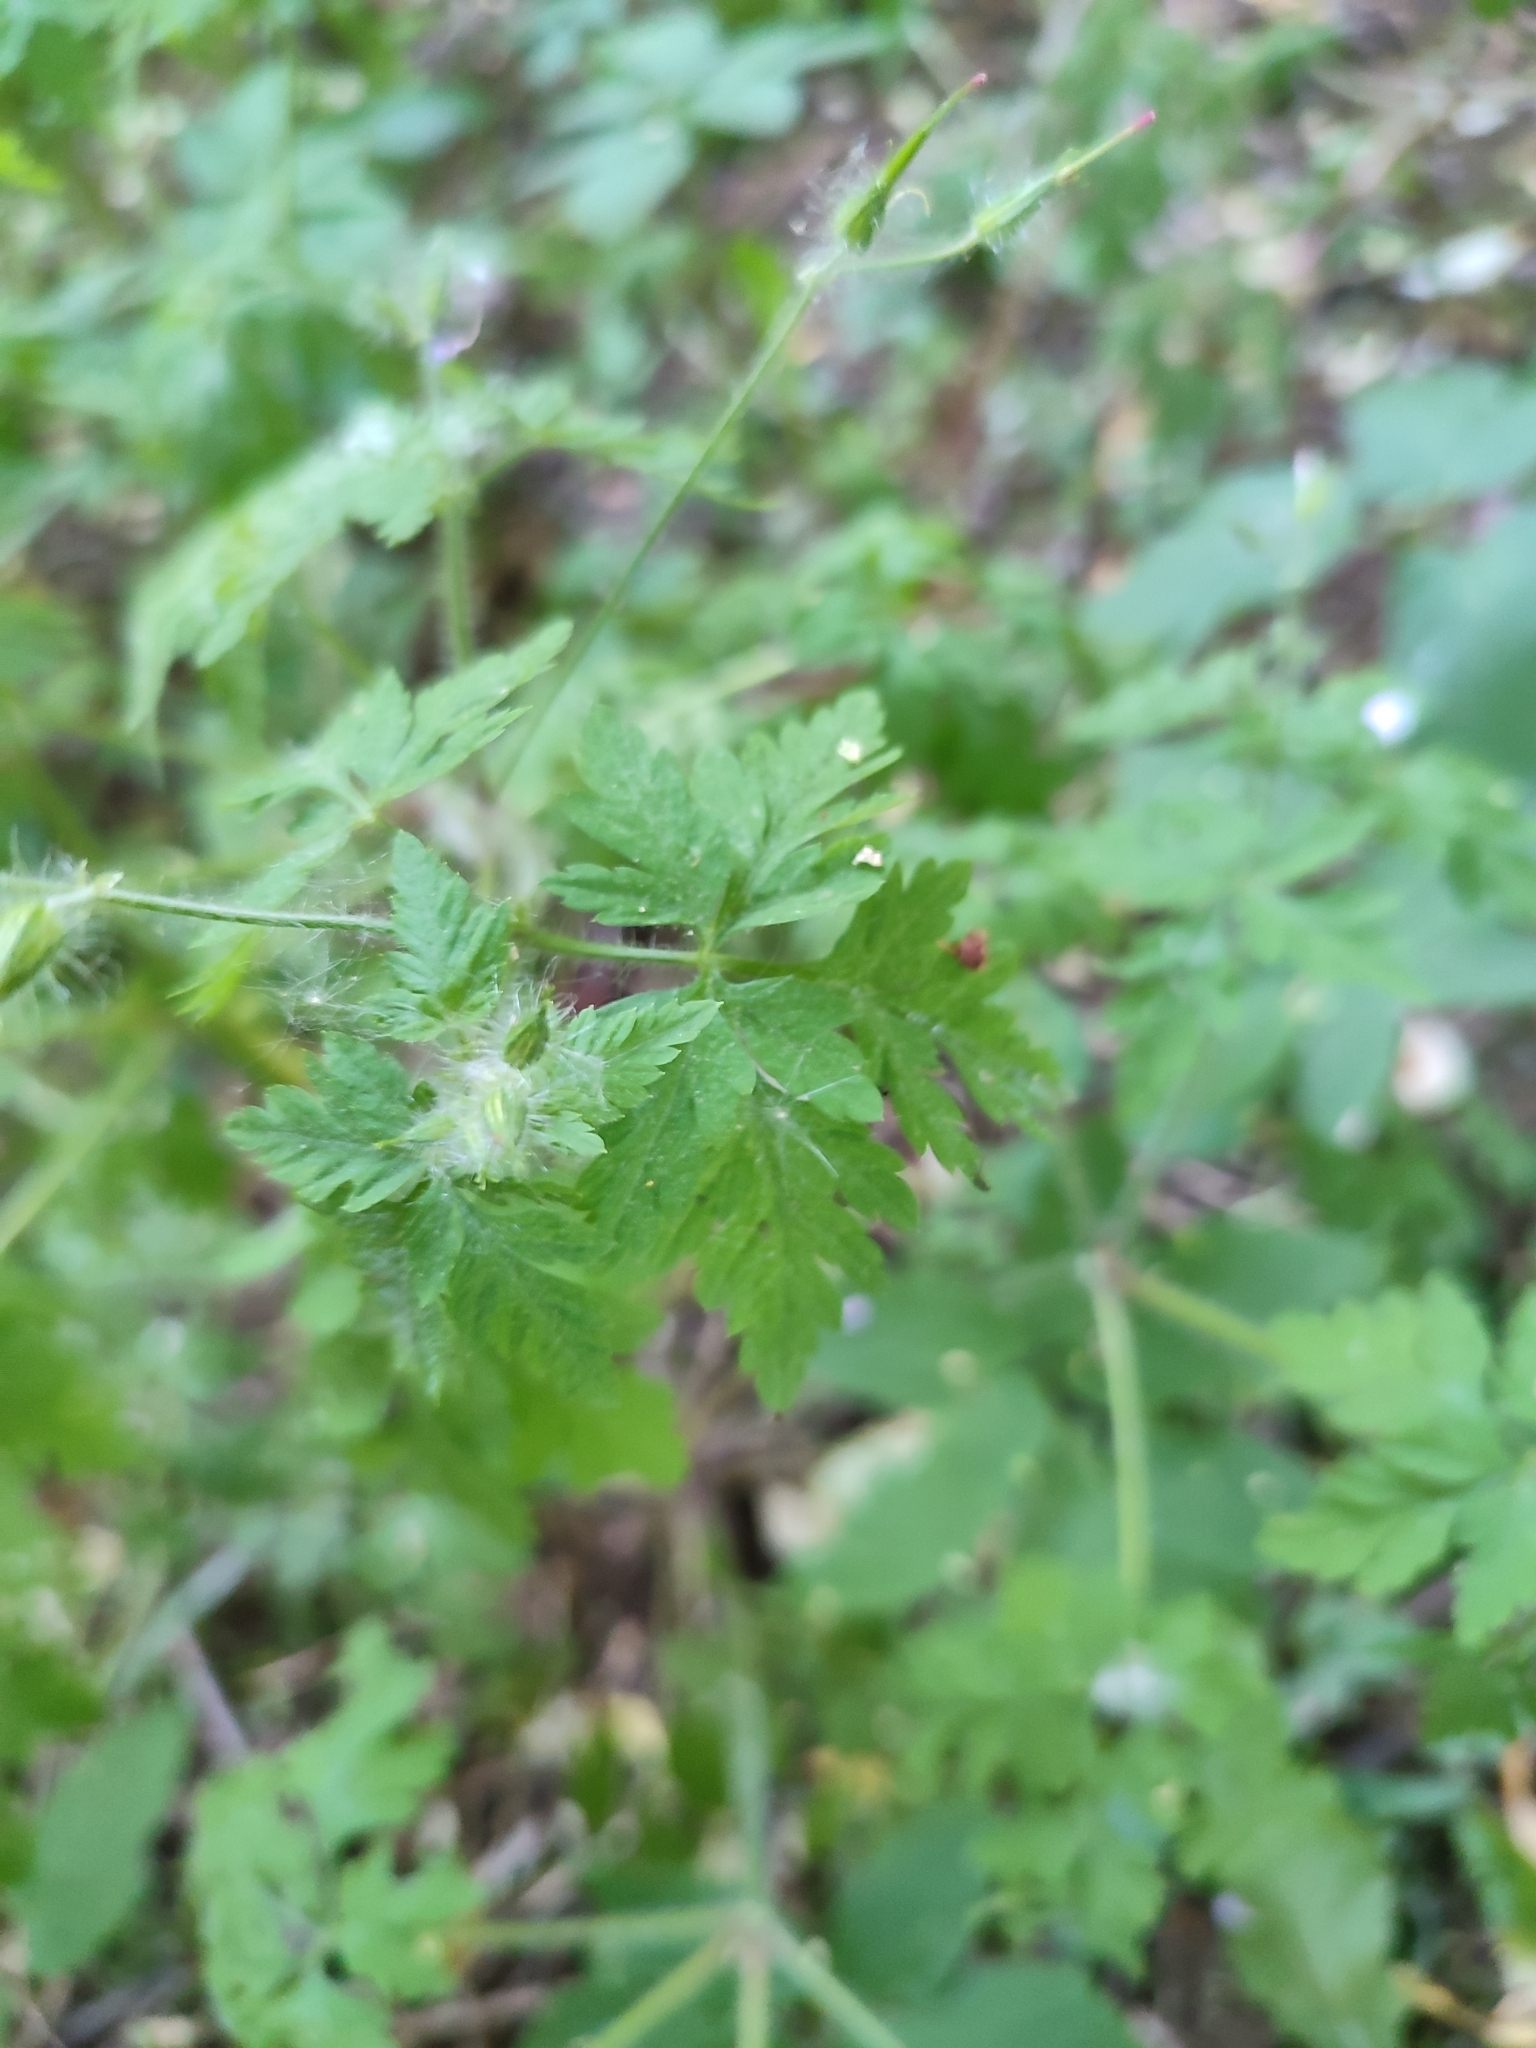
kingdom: Plantae
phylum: Tracheophyta
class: Magnoliopsida
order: Geraniales
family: Geraniaceae
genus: Geranium
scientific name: Geranium robertianum
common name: Herb-robert
